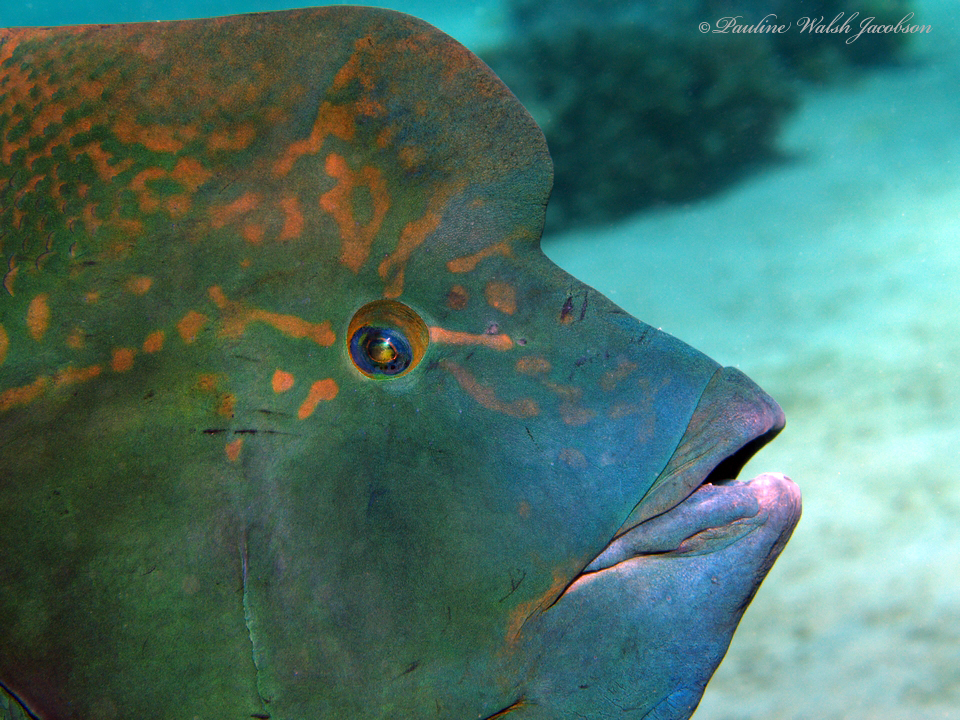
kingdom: Animalia
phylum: Chordata
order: Perciformes
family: Labridae
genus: Coris
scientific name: Coris aygula
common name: Clown coris
